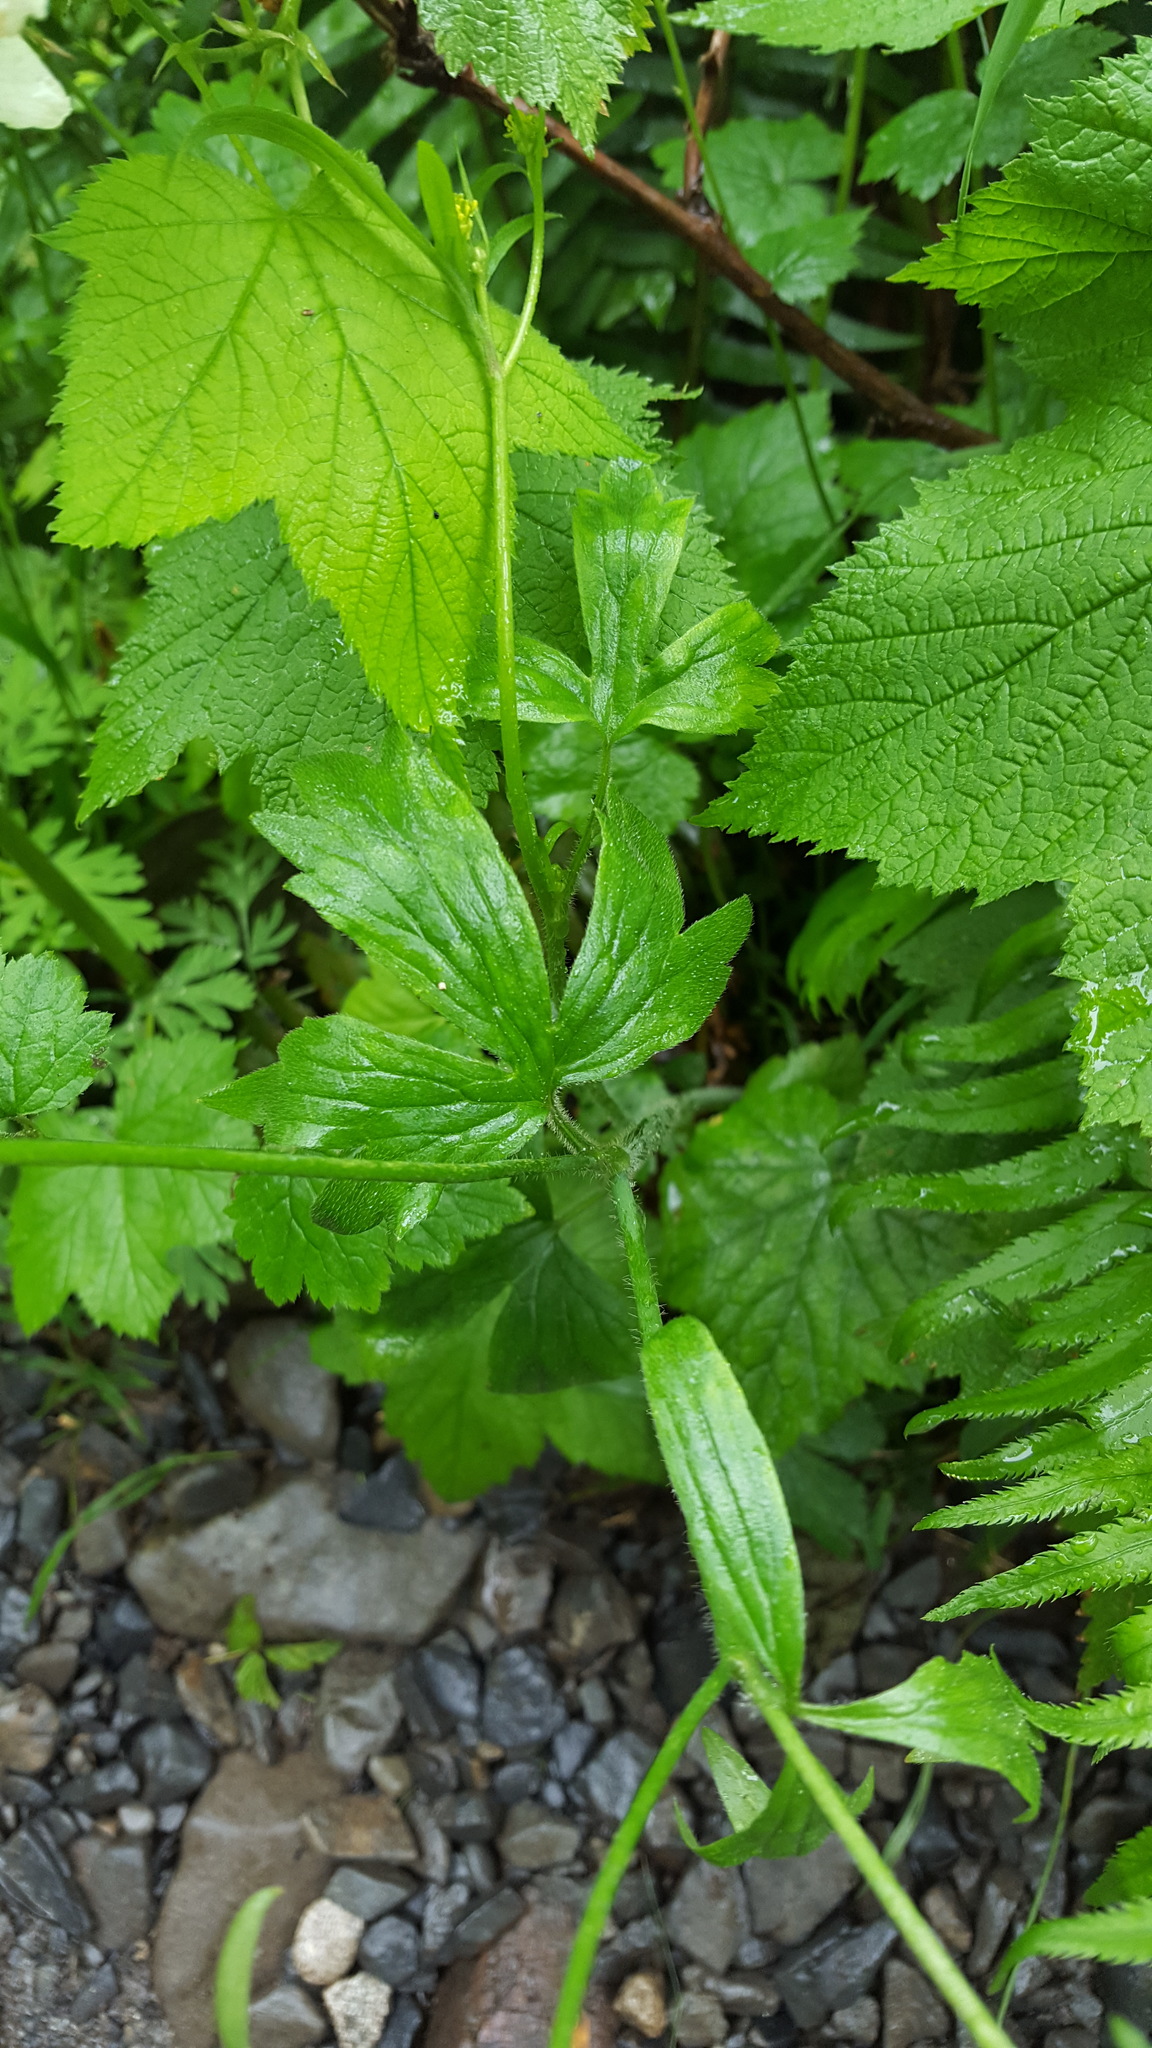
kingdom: Plantae
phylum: Tracheophyta
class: Magnoliopsida
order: Ranunculales
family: Ranunculaceae
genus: Ranunculus
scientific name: Ranunculus uncinatus
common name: Little buttercup
